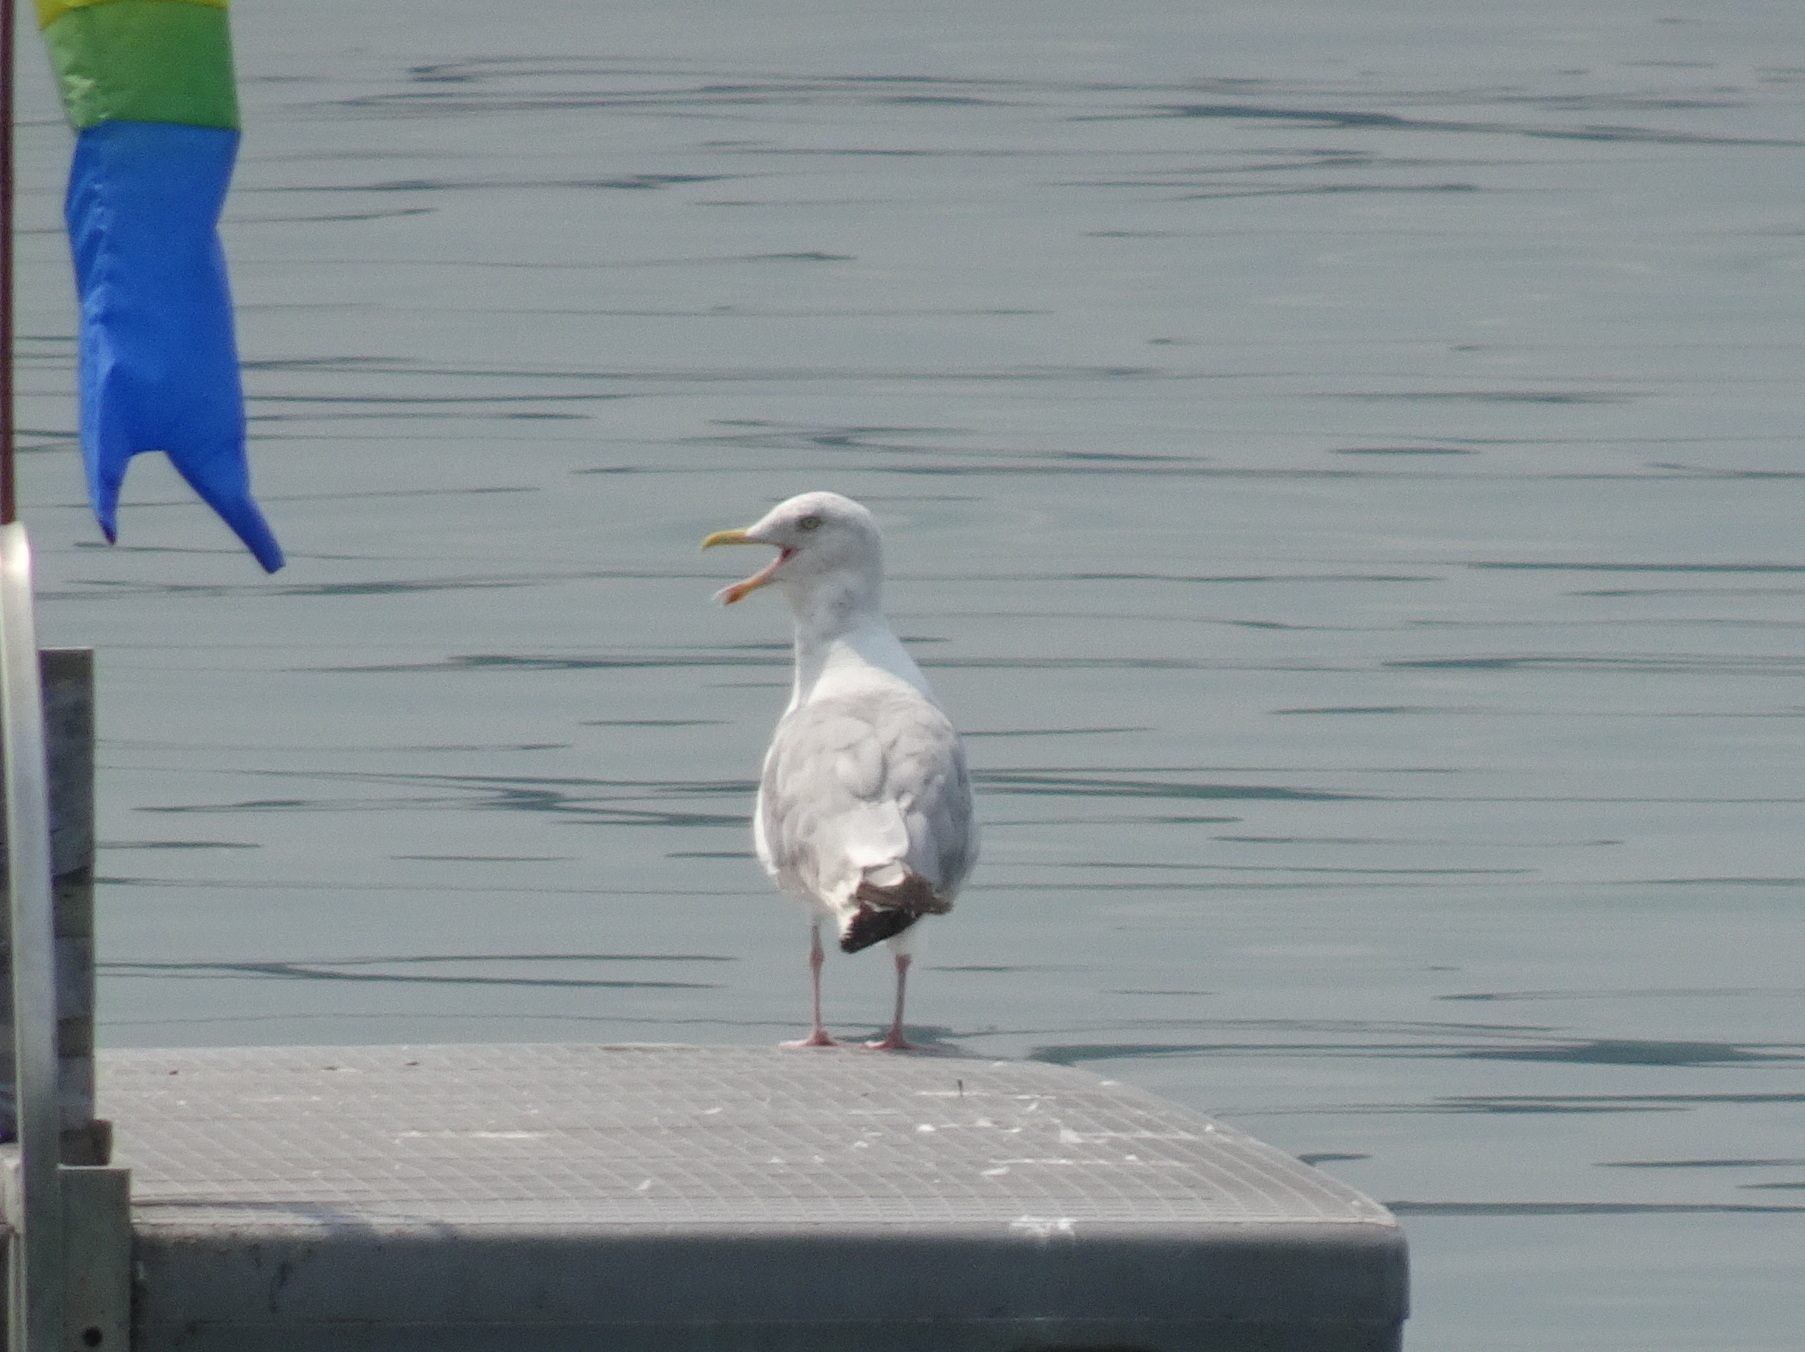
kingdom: Animalia
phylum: Chordata
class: Aves
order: Charadriiformes
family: Laridae
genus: Larus
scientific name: Larus argentatus
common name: Herring gull
